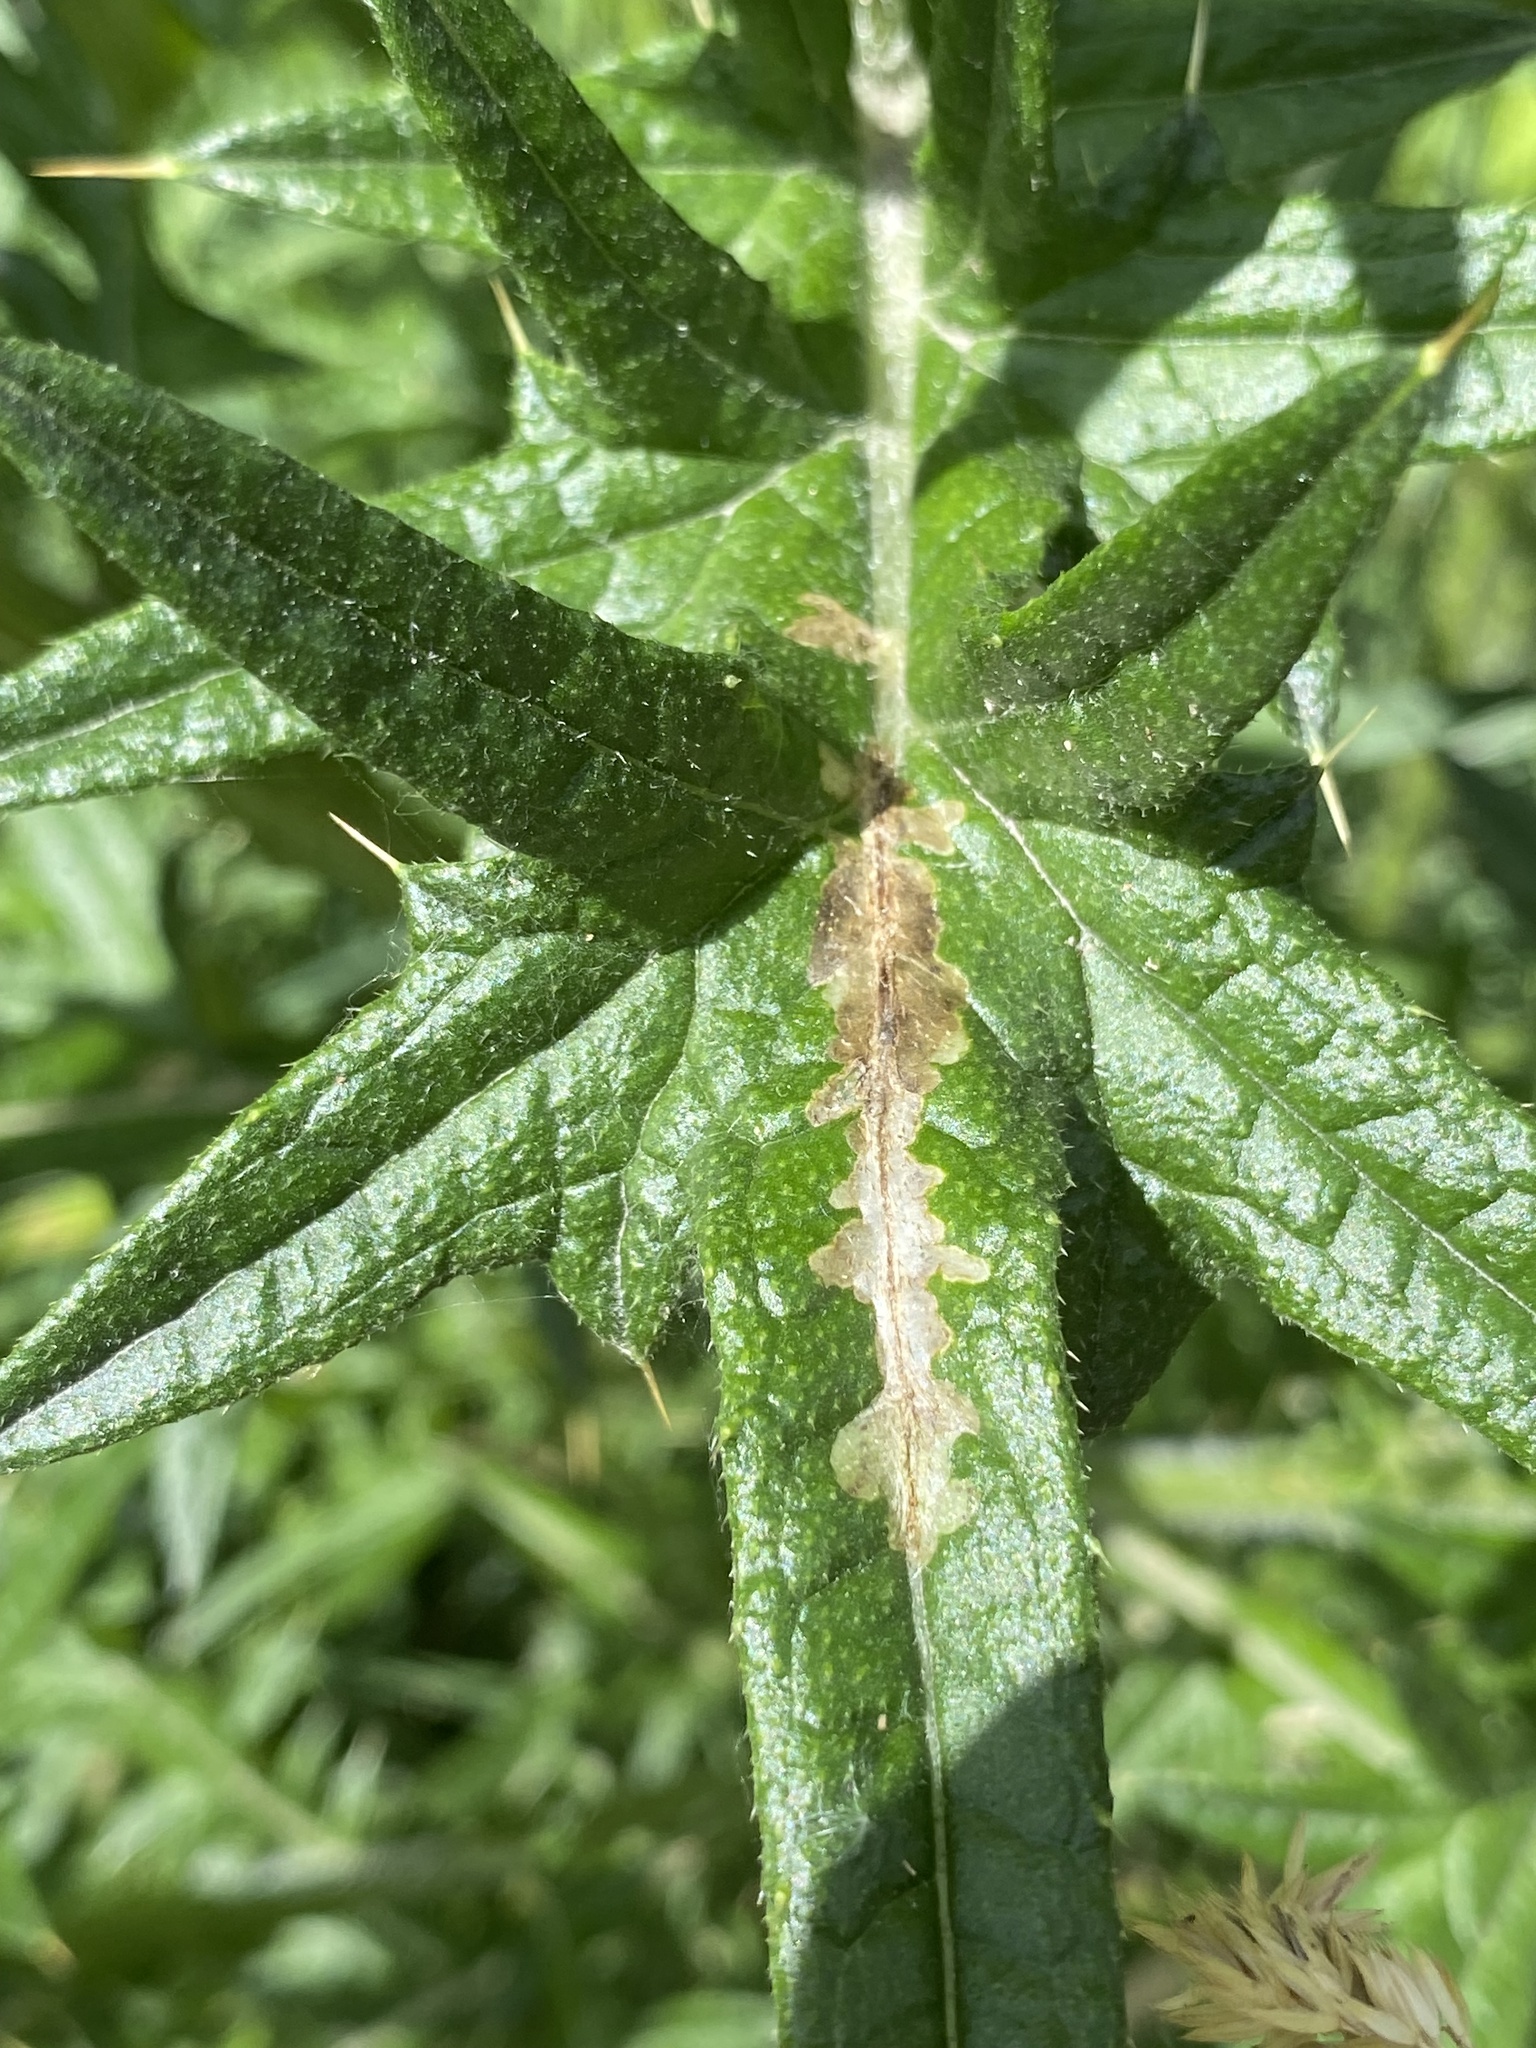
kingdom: Animalia
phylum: Arthropoda
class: Insecta
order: Lepidoptera
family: Gelechiidae
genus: Scrobipalpa
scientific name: Scrobipalpa acuminatella
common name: Pointed groundling
